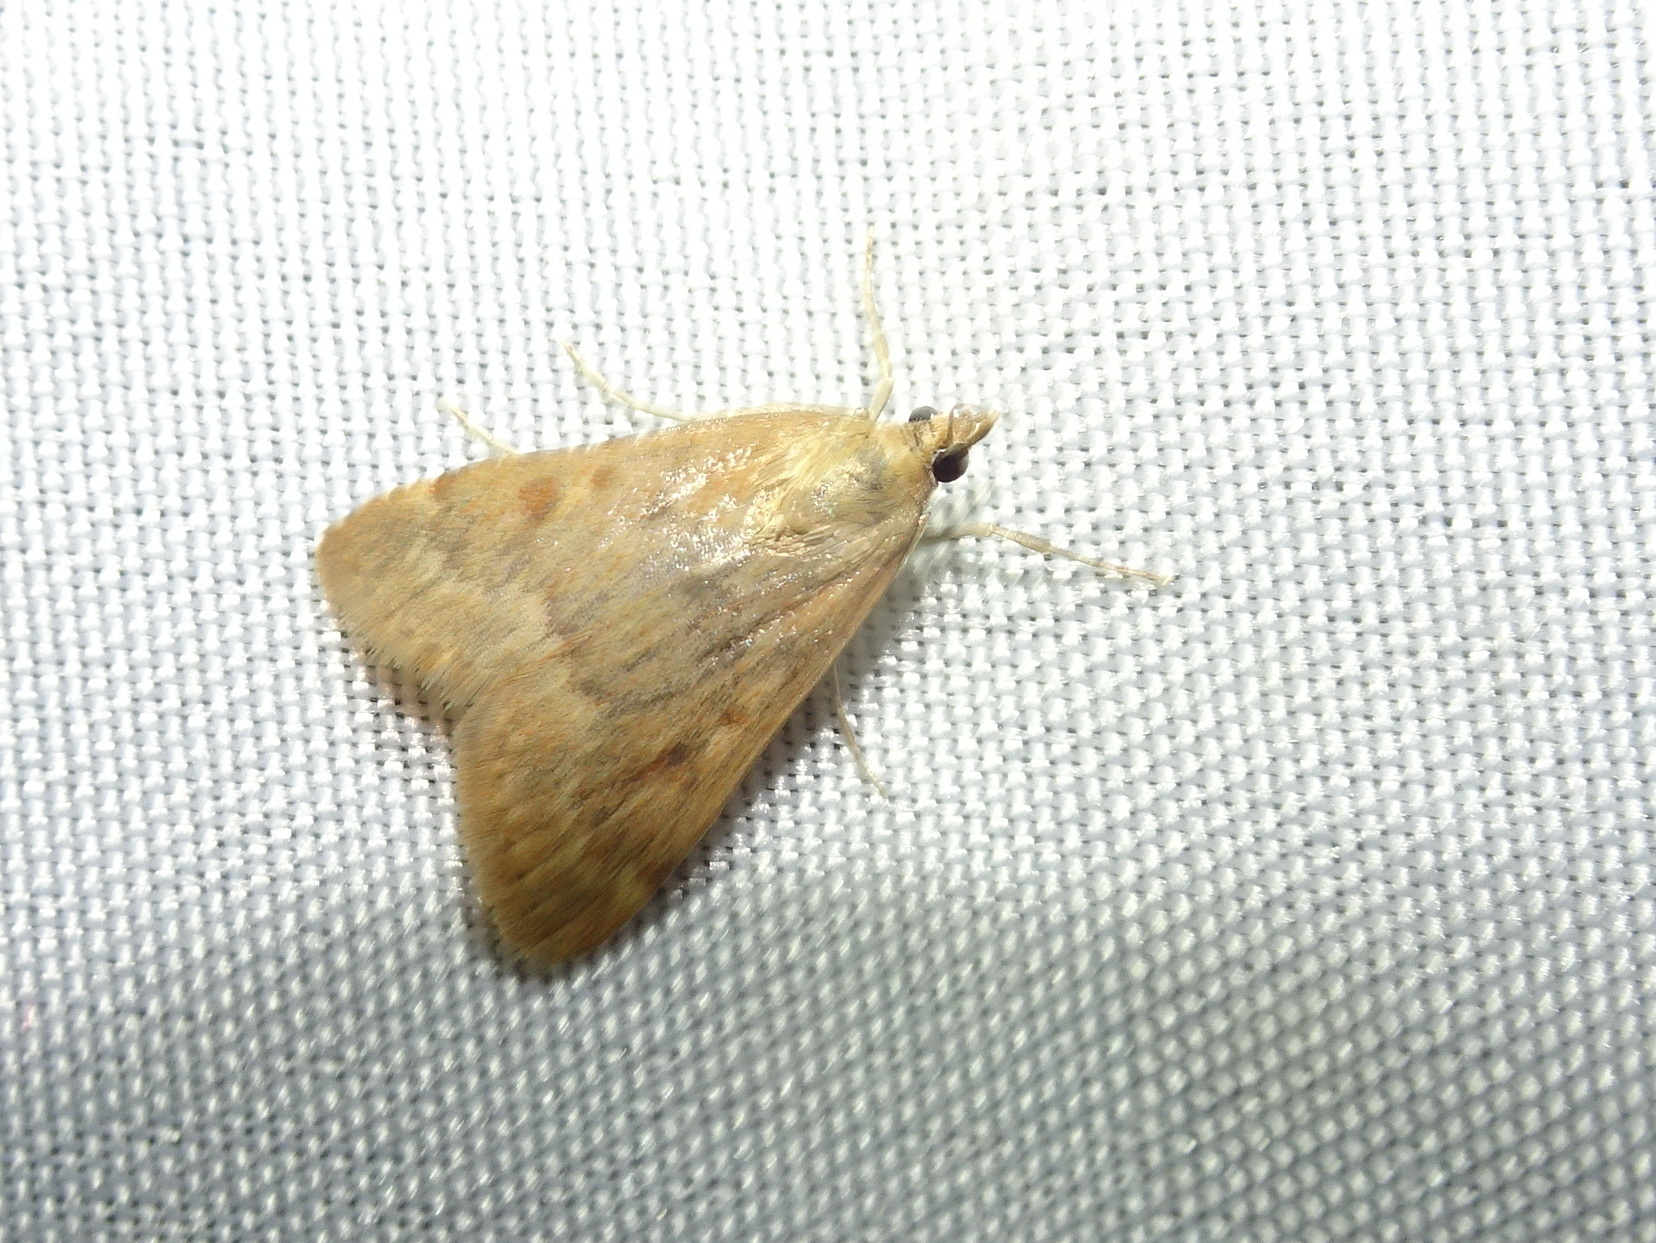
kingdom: Animalia
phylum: Arthropoda
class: Insecta
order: Lepidoptera
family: Crambidae
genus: Achyra
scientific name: Achyra rantalis
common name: Garden webworm
